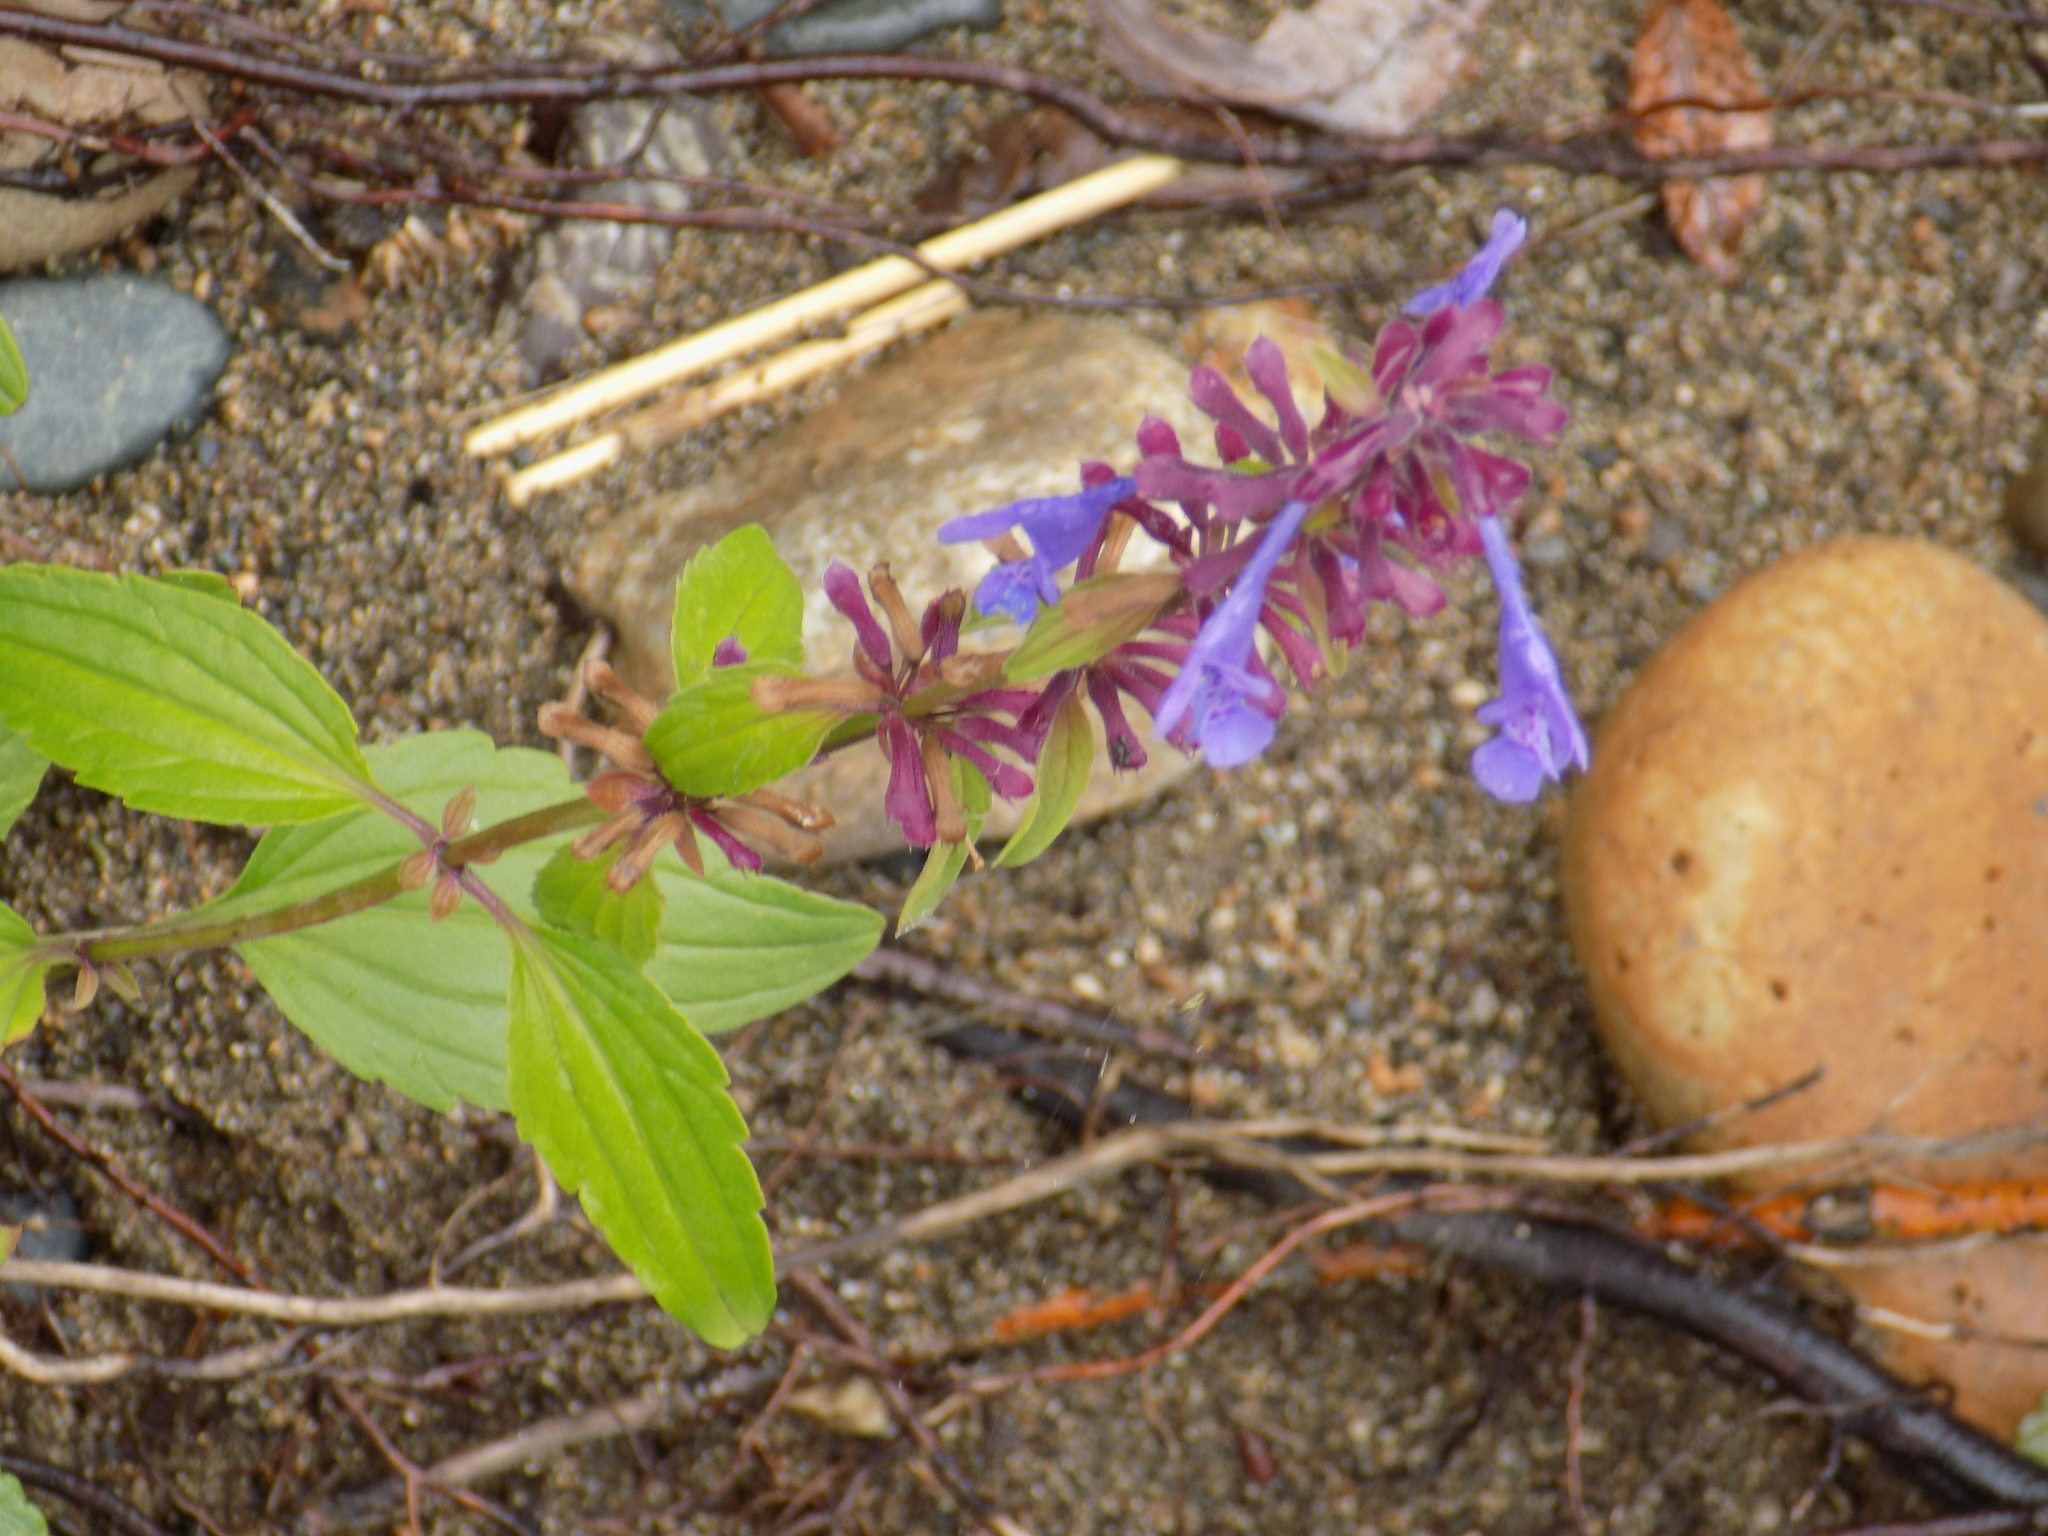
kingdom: Plantae
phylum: Tracheophyta
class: Magnoliopsida
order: Lamiales
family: Lamiaceae
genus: Dracocephalum
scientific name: Dracocephalum nutans
